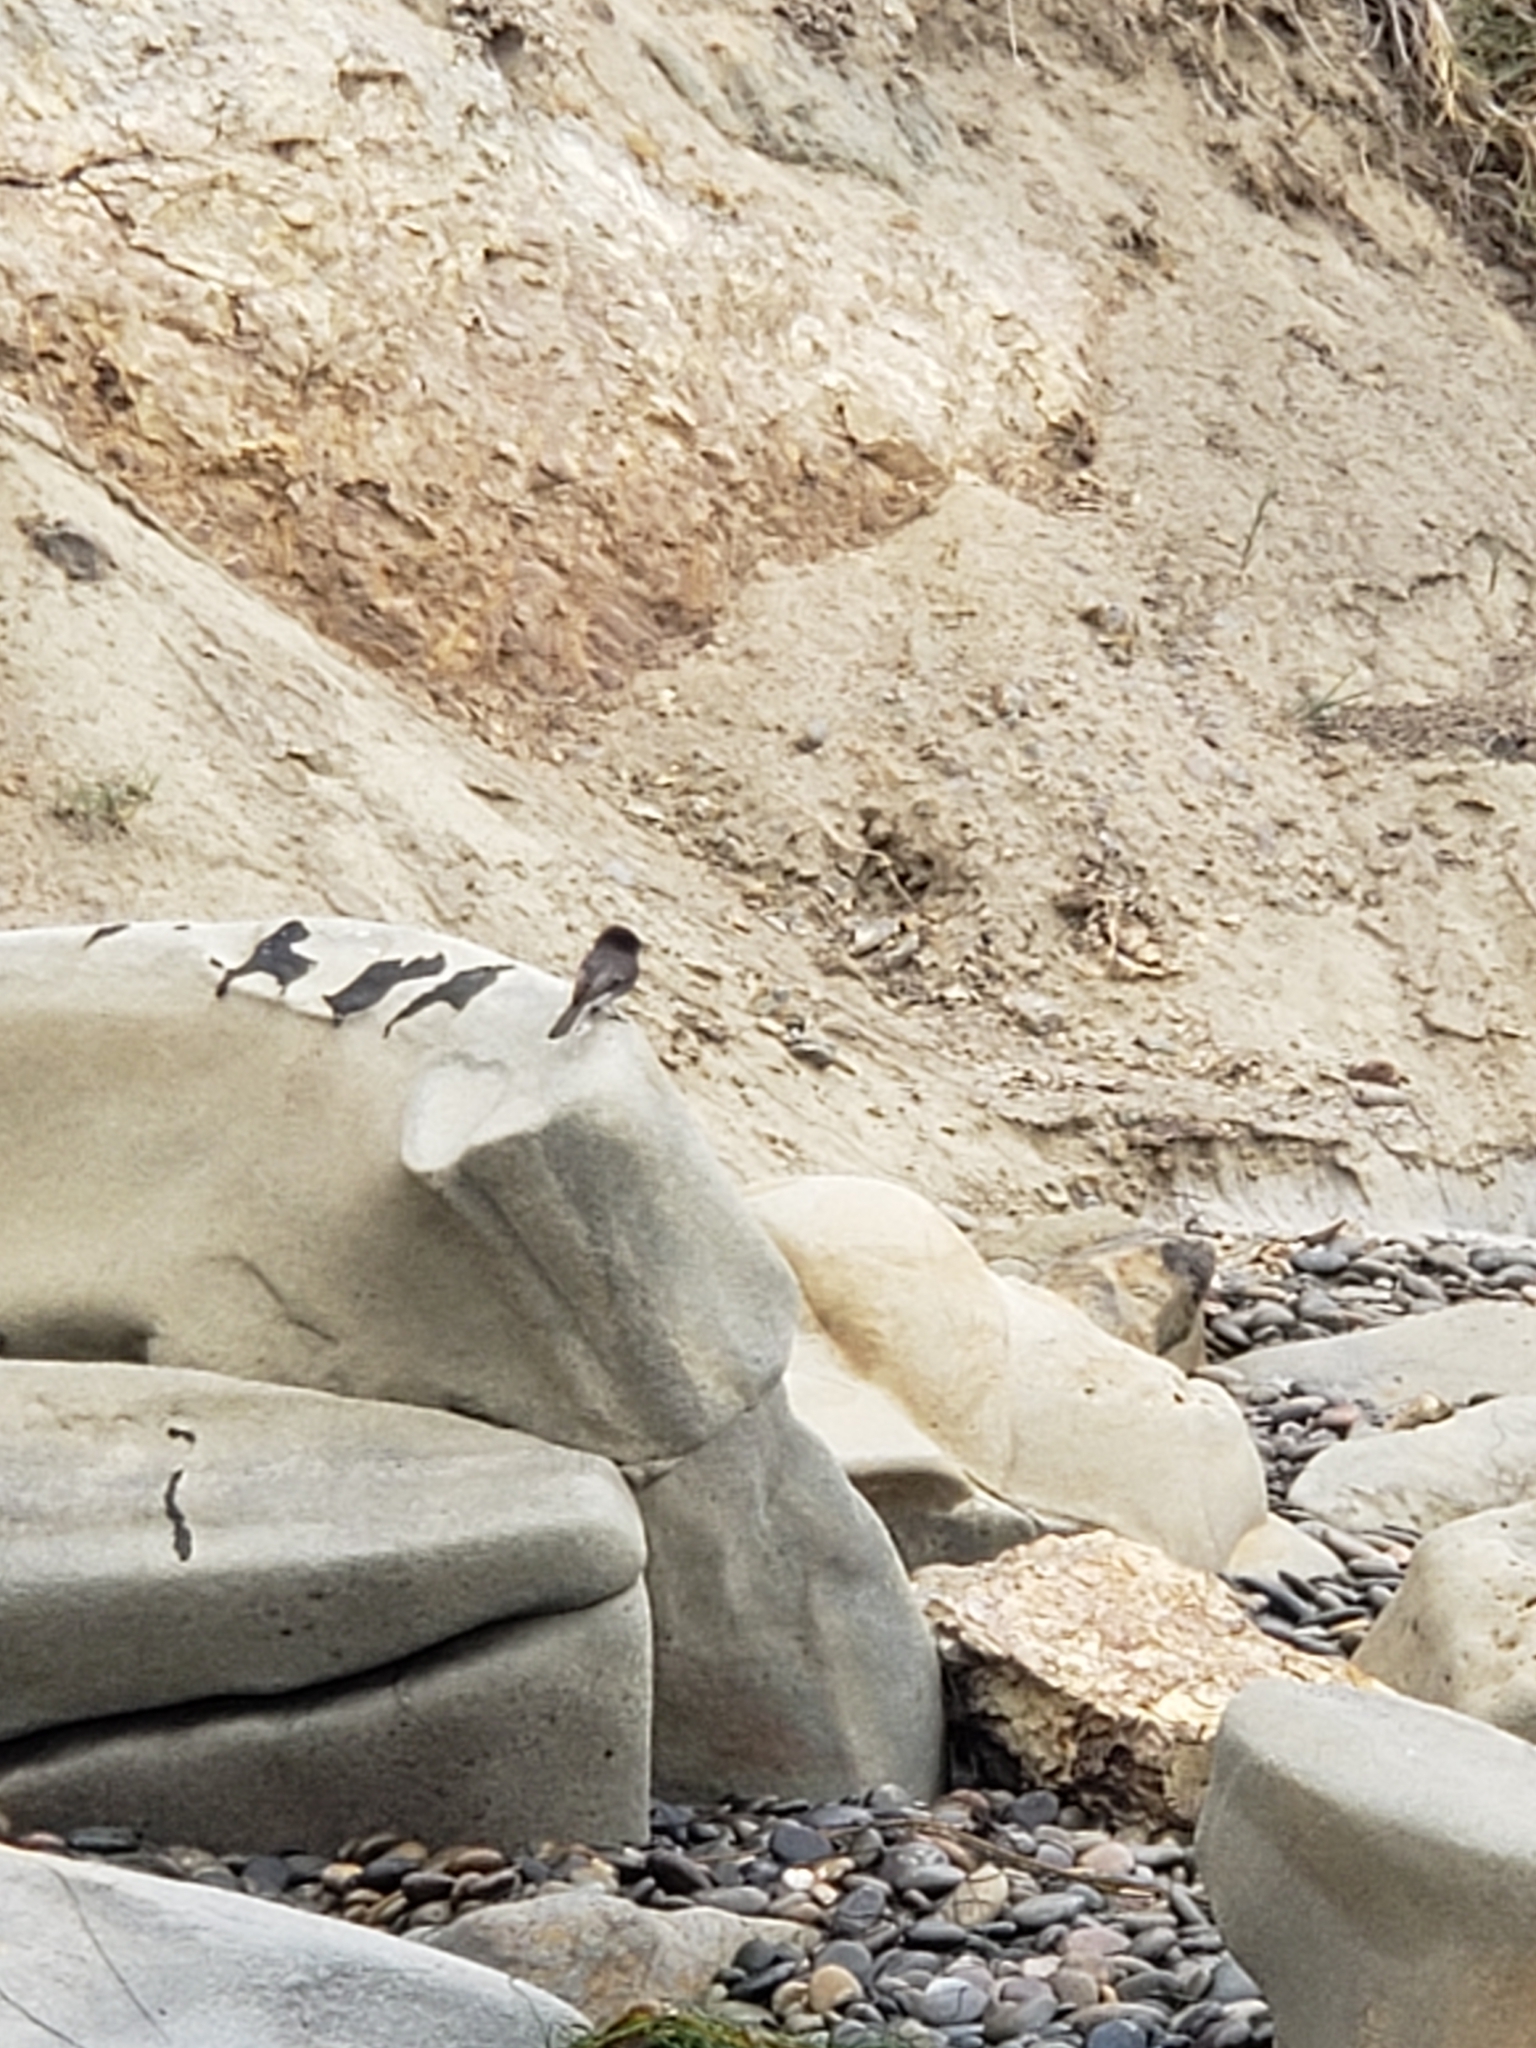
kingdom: Animalia
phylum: Chordata
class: Aves
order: Passeriformes
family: Tyrannidae
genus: Sayornis
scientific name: Sayornis nigricans
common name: Black phoebe
